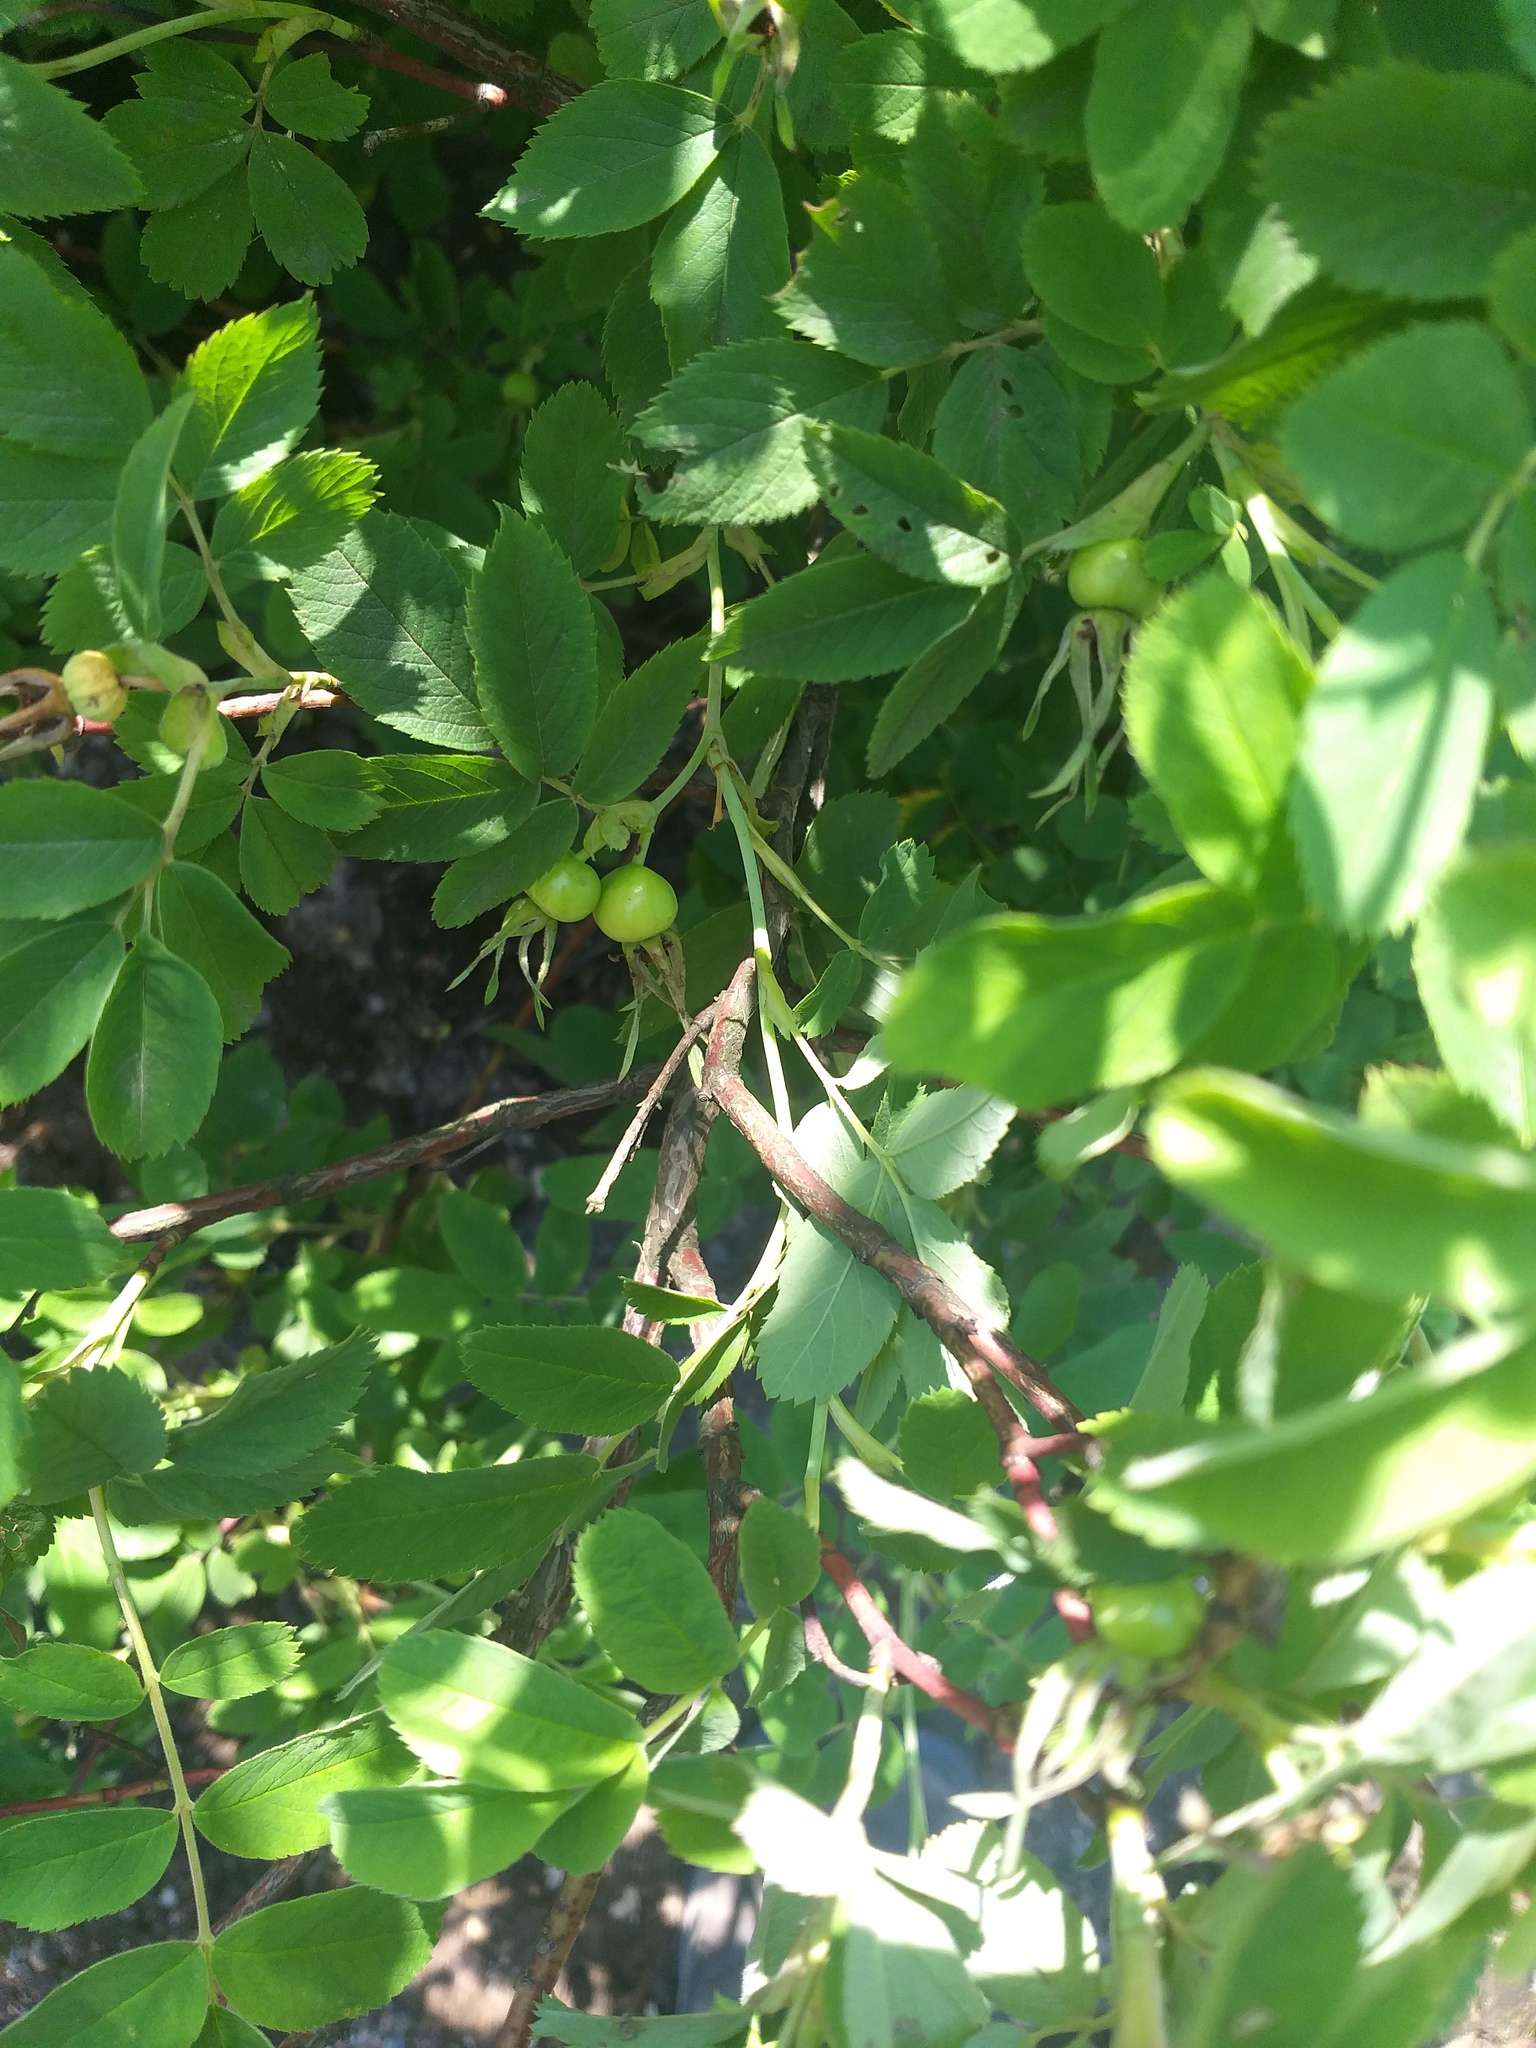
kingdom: Plantae
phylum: Tracheophyta
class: Magnoliopsida
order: Rosales
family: Rosaceae
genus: Rosa
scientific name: Rosa majalis
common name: Cinnamon rose
